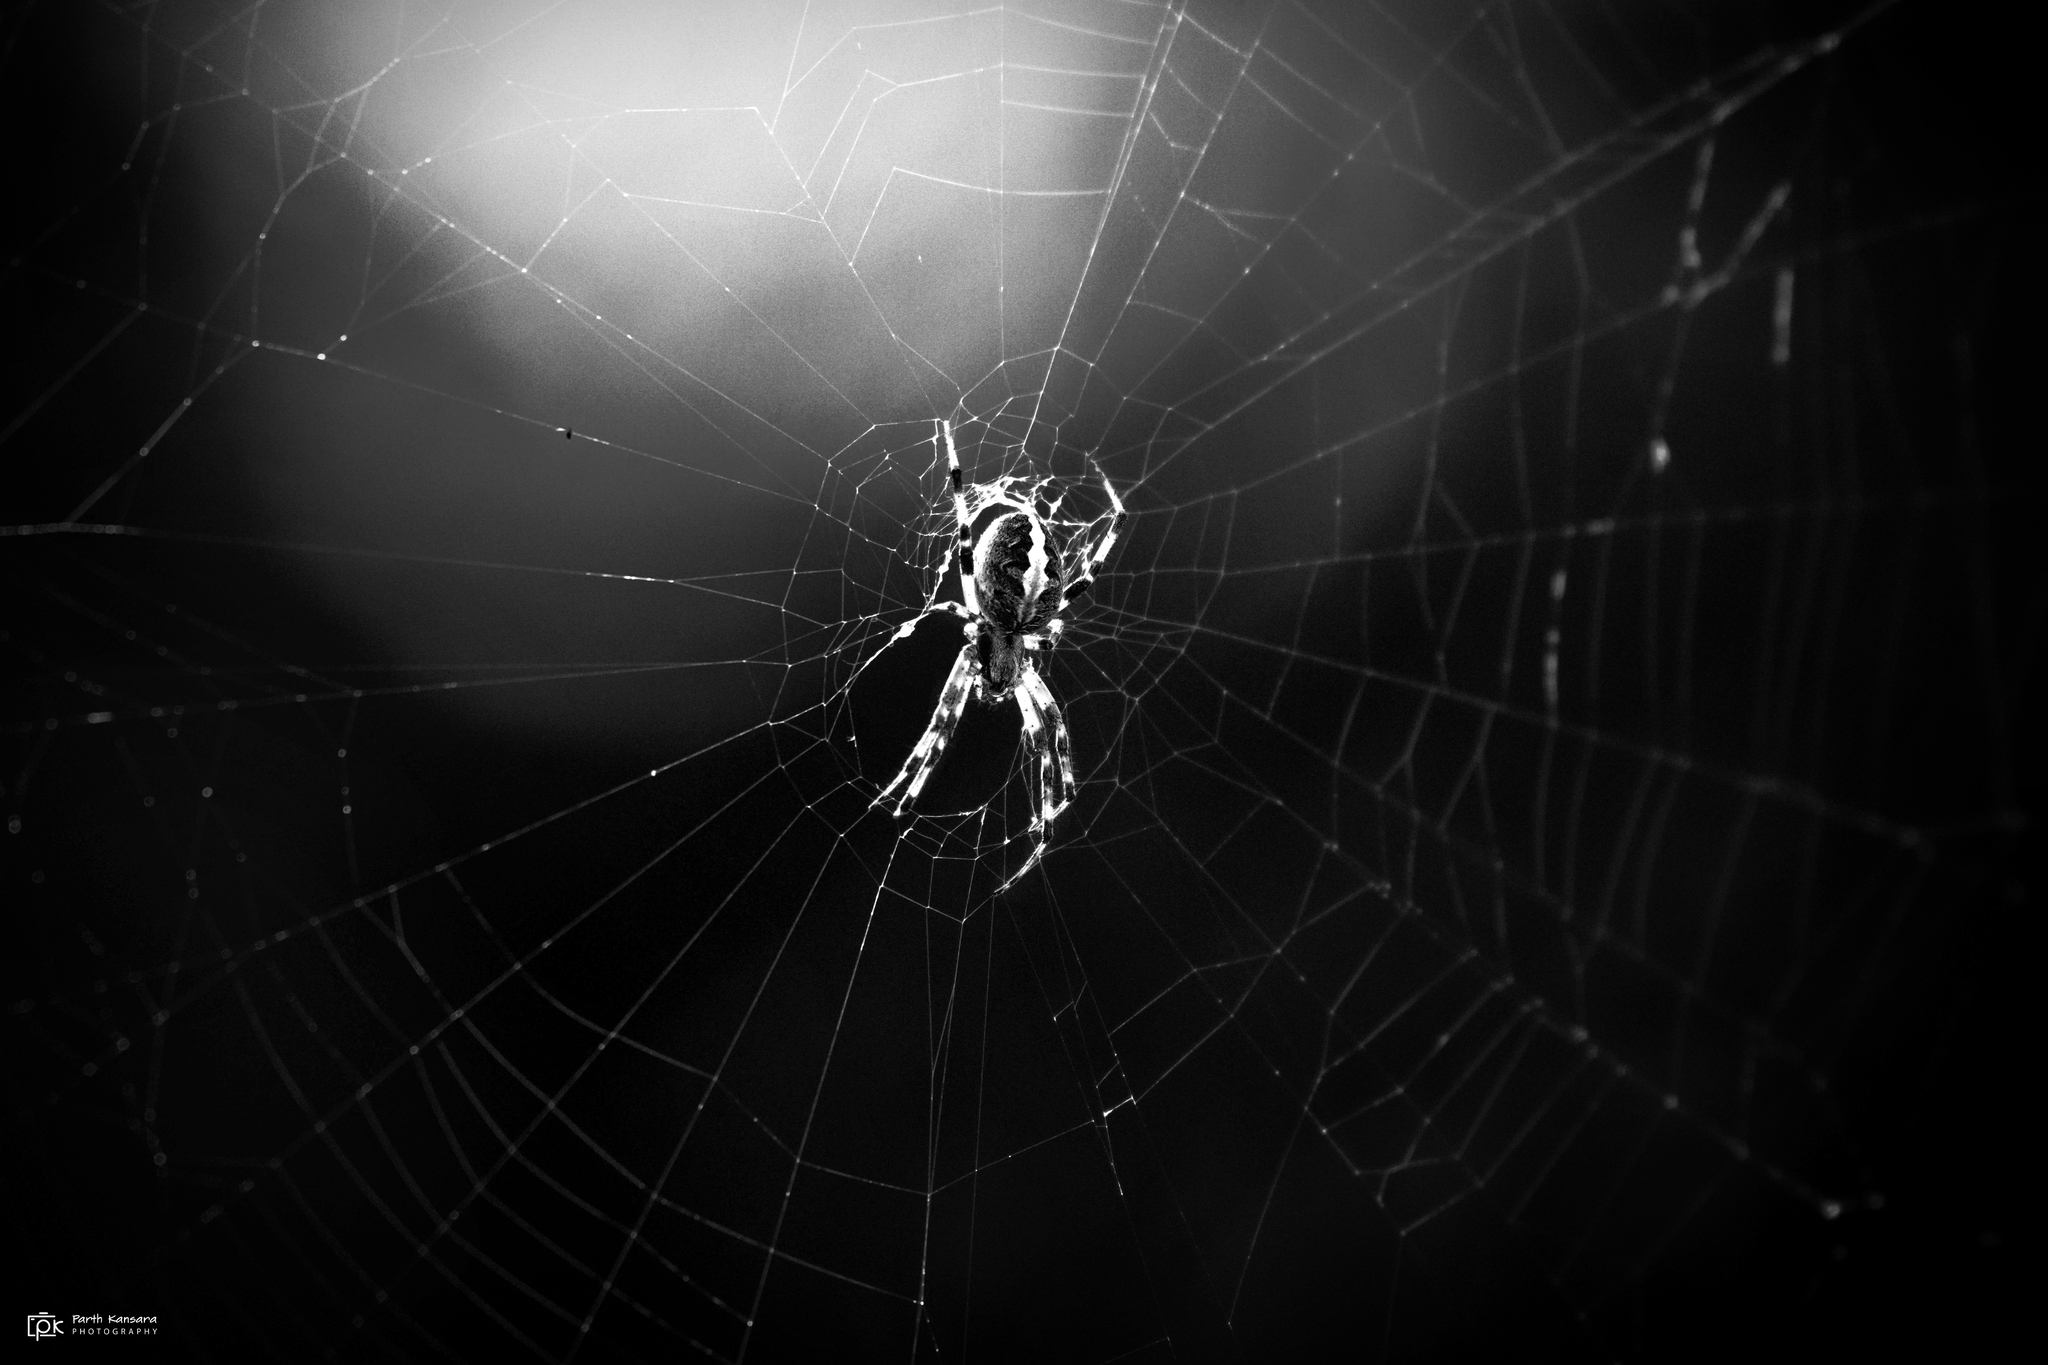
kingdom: Animalia
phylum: Arthropoda
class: Arachnida
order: Araneae
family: Araneidae
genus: Neoscona
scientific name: Neoscona theisi
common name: Spider
